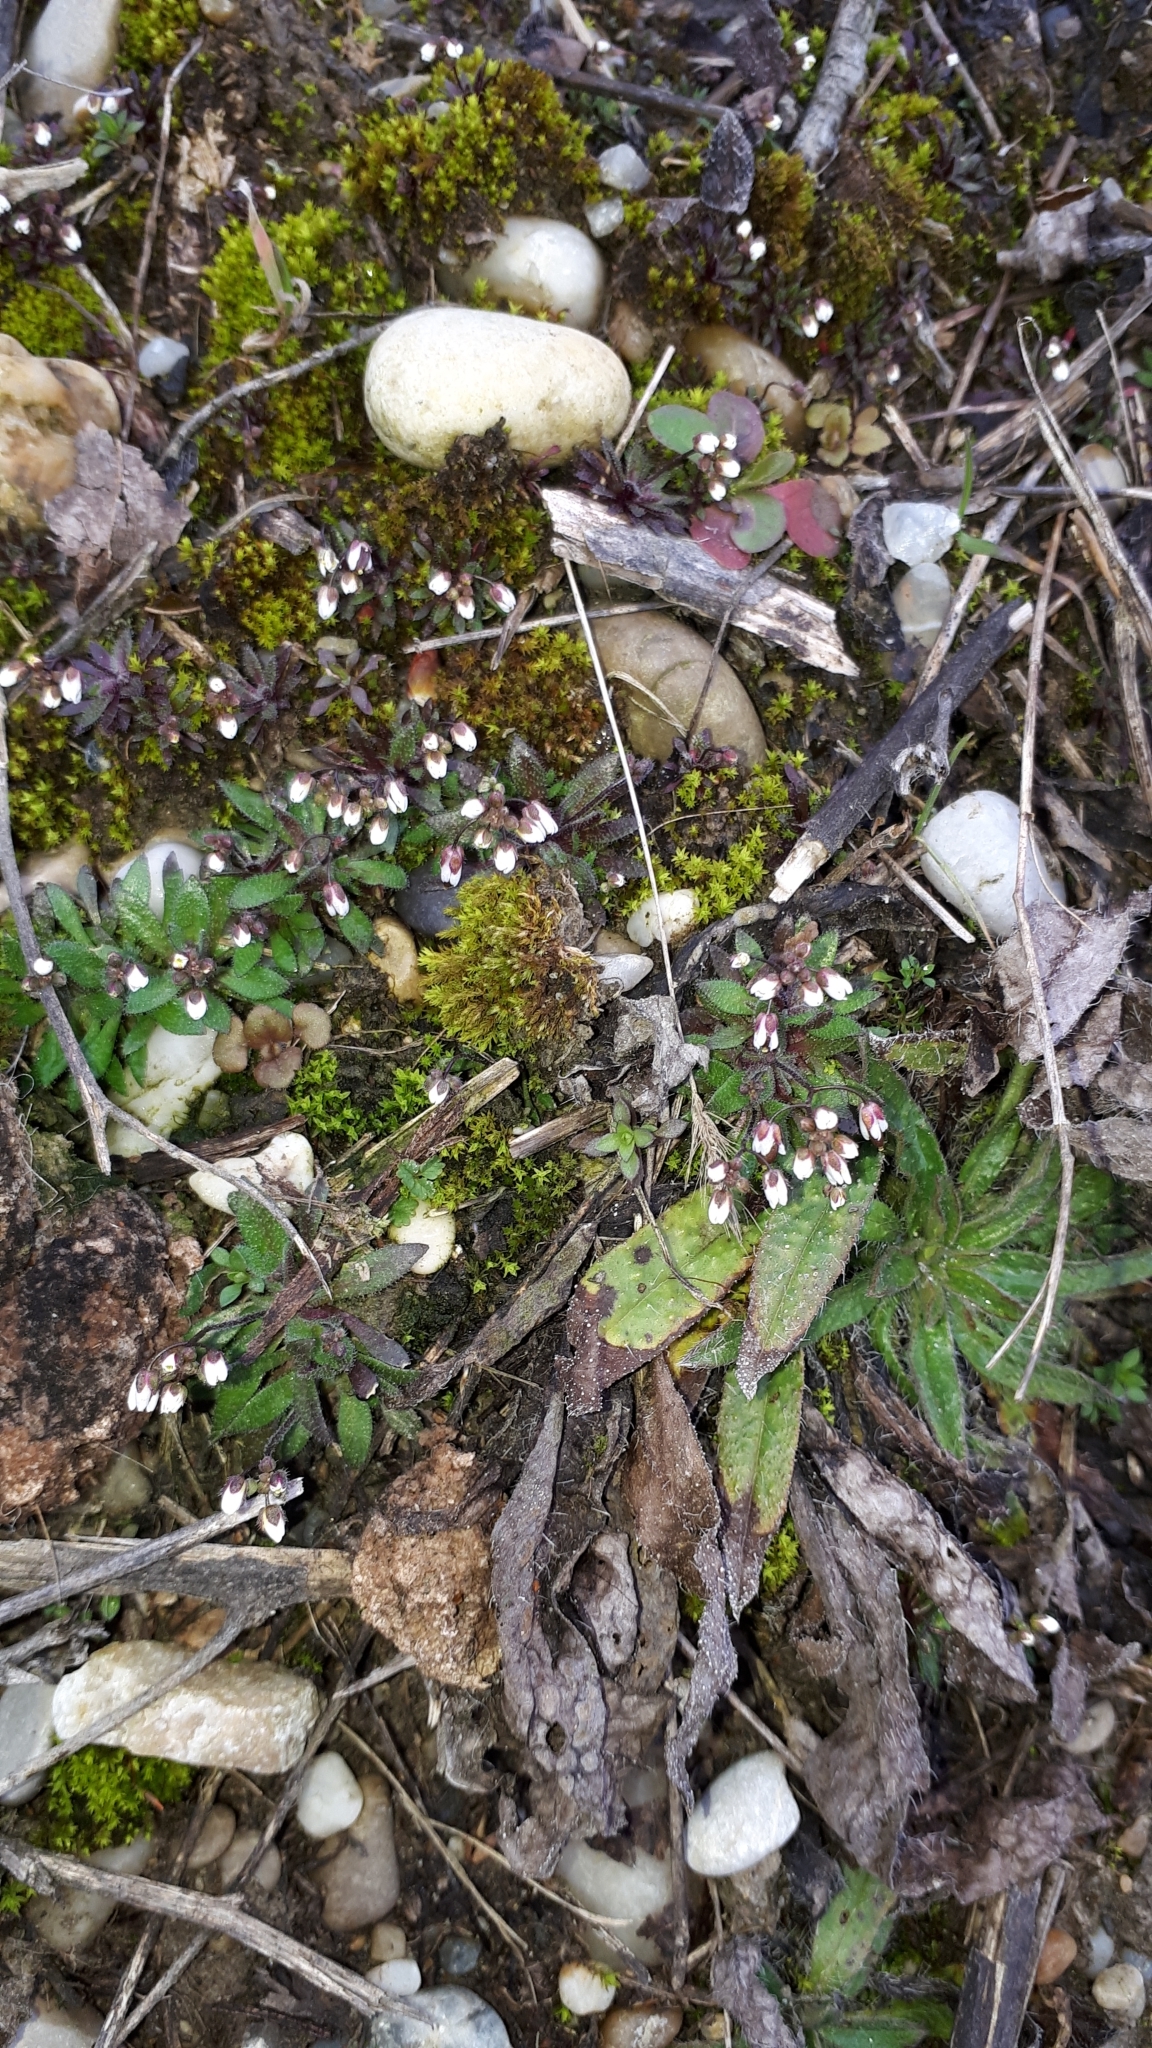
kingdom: Plantae
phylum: Tracheophyta
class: Magnoliopsida
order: Brassicales
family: Brassicaceae
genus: Draba
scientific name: Draba verna
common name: Spring draba
